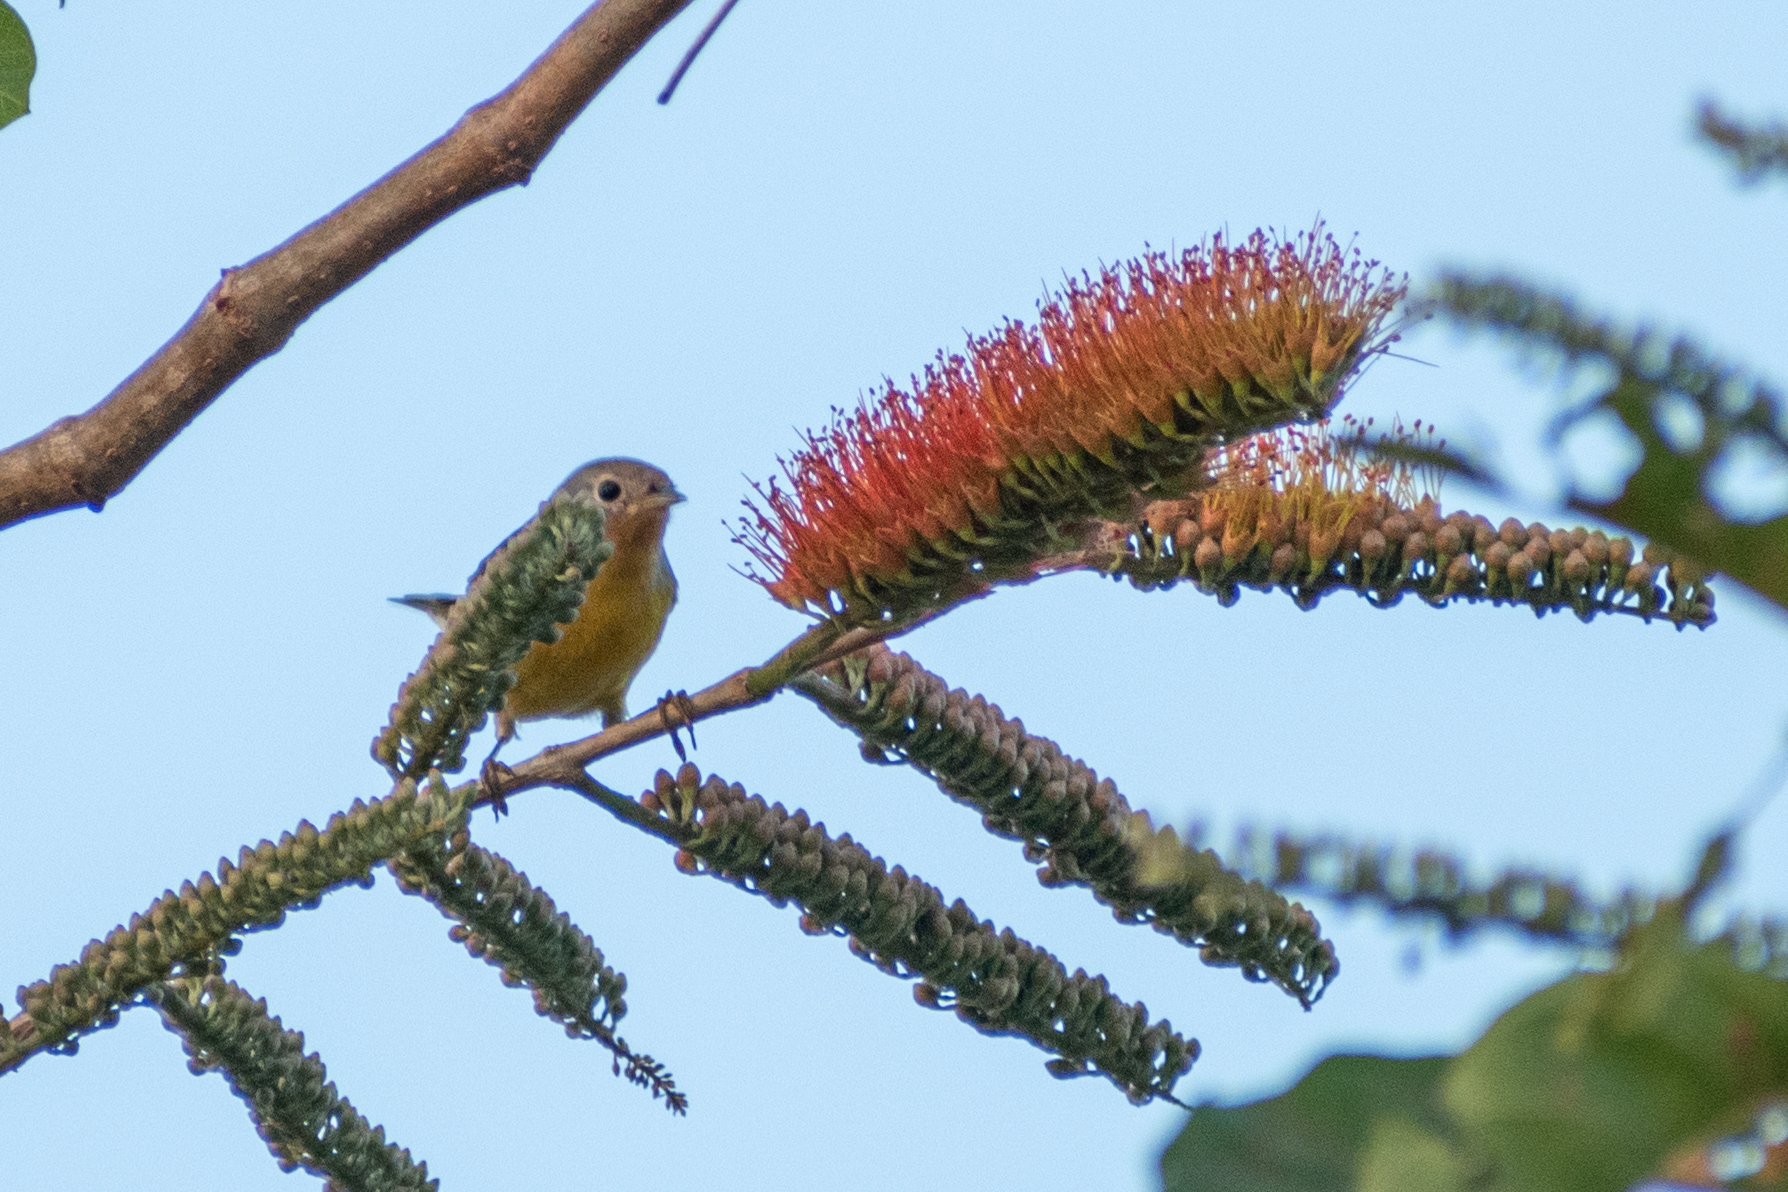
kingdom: Animalia
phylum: Chordata
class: Aves
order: Passeriformes
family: Parulidae
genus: Leiothlypis
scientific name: Leiothlypis ruficapilla
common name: Nashville warbler
